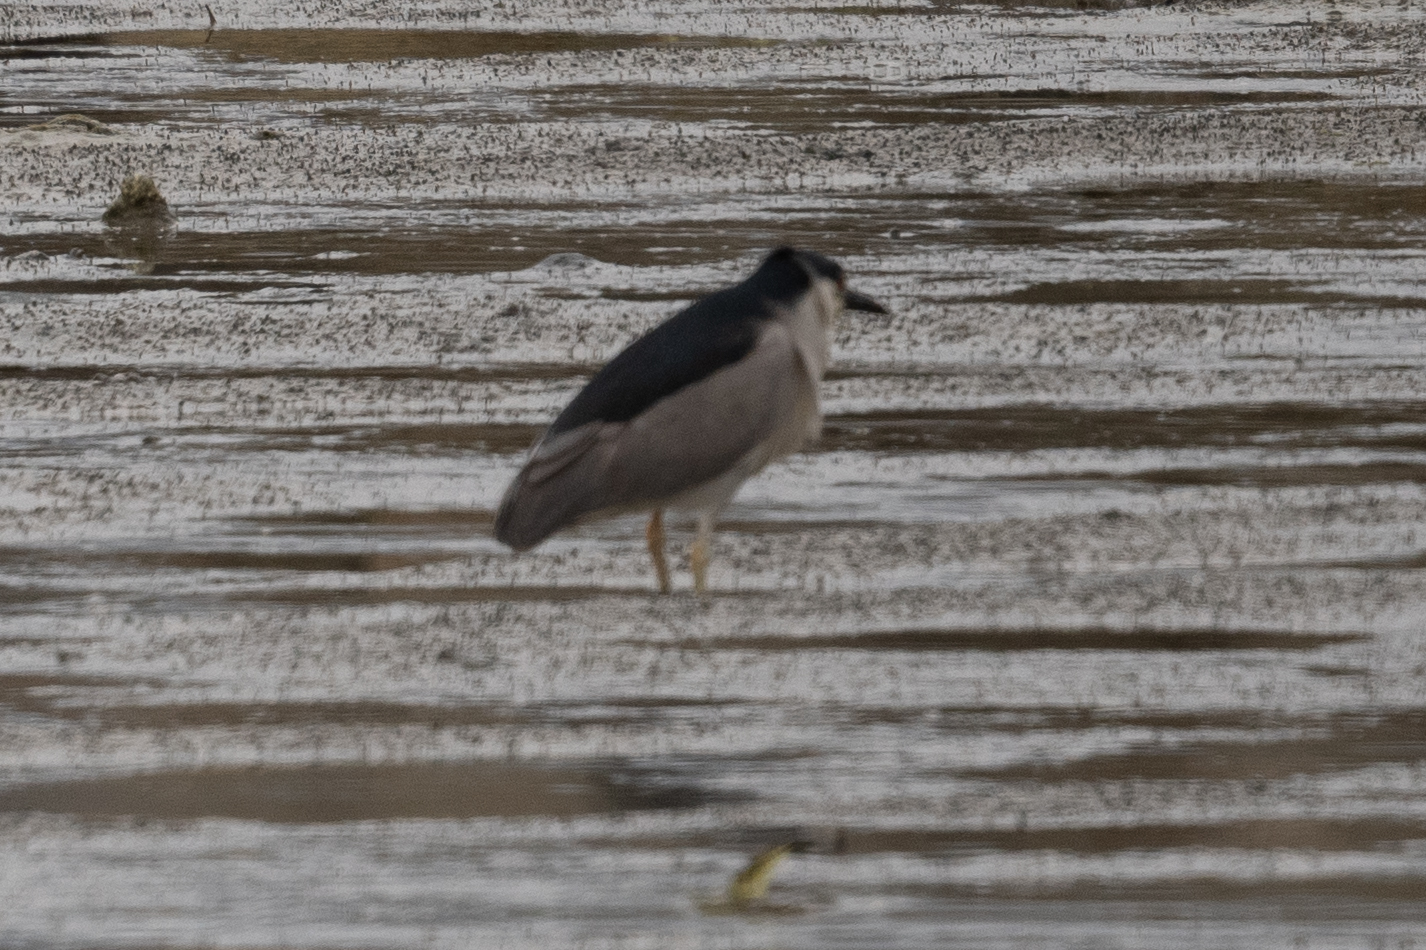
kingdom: Animalia
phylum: Chordata
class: Aves
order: Pelecaniformes
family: Ardeidae
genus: Nycticorax
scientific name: Nycticorax nycticorax
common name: Black-crowned night heron
